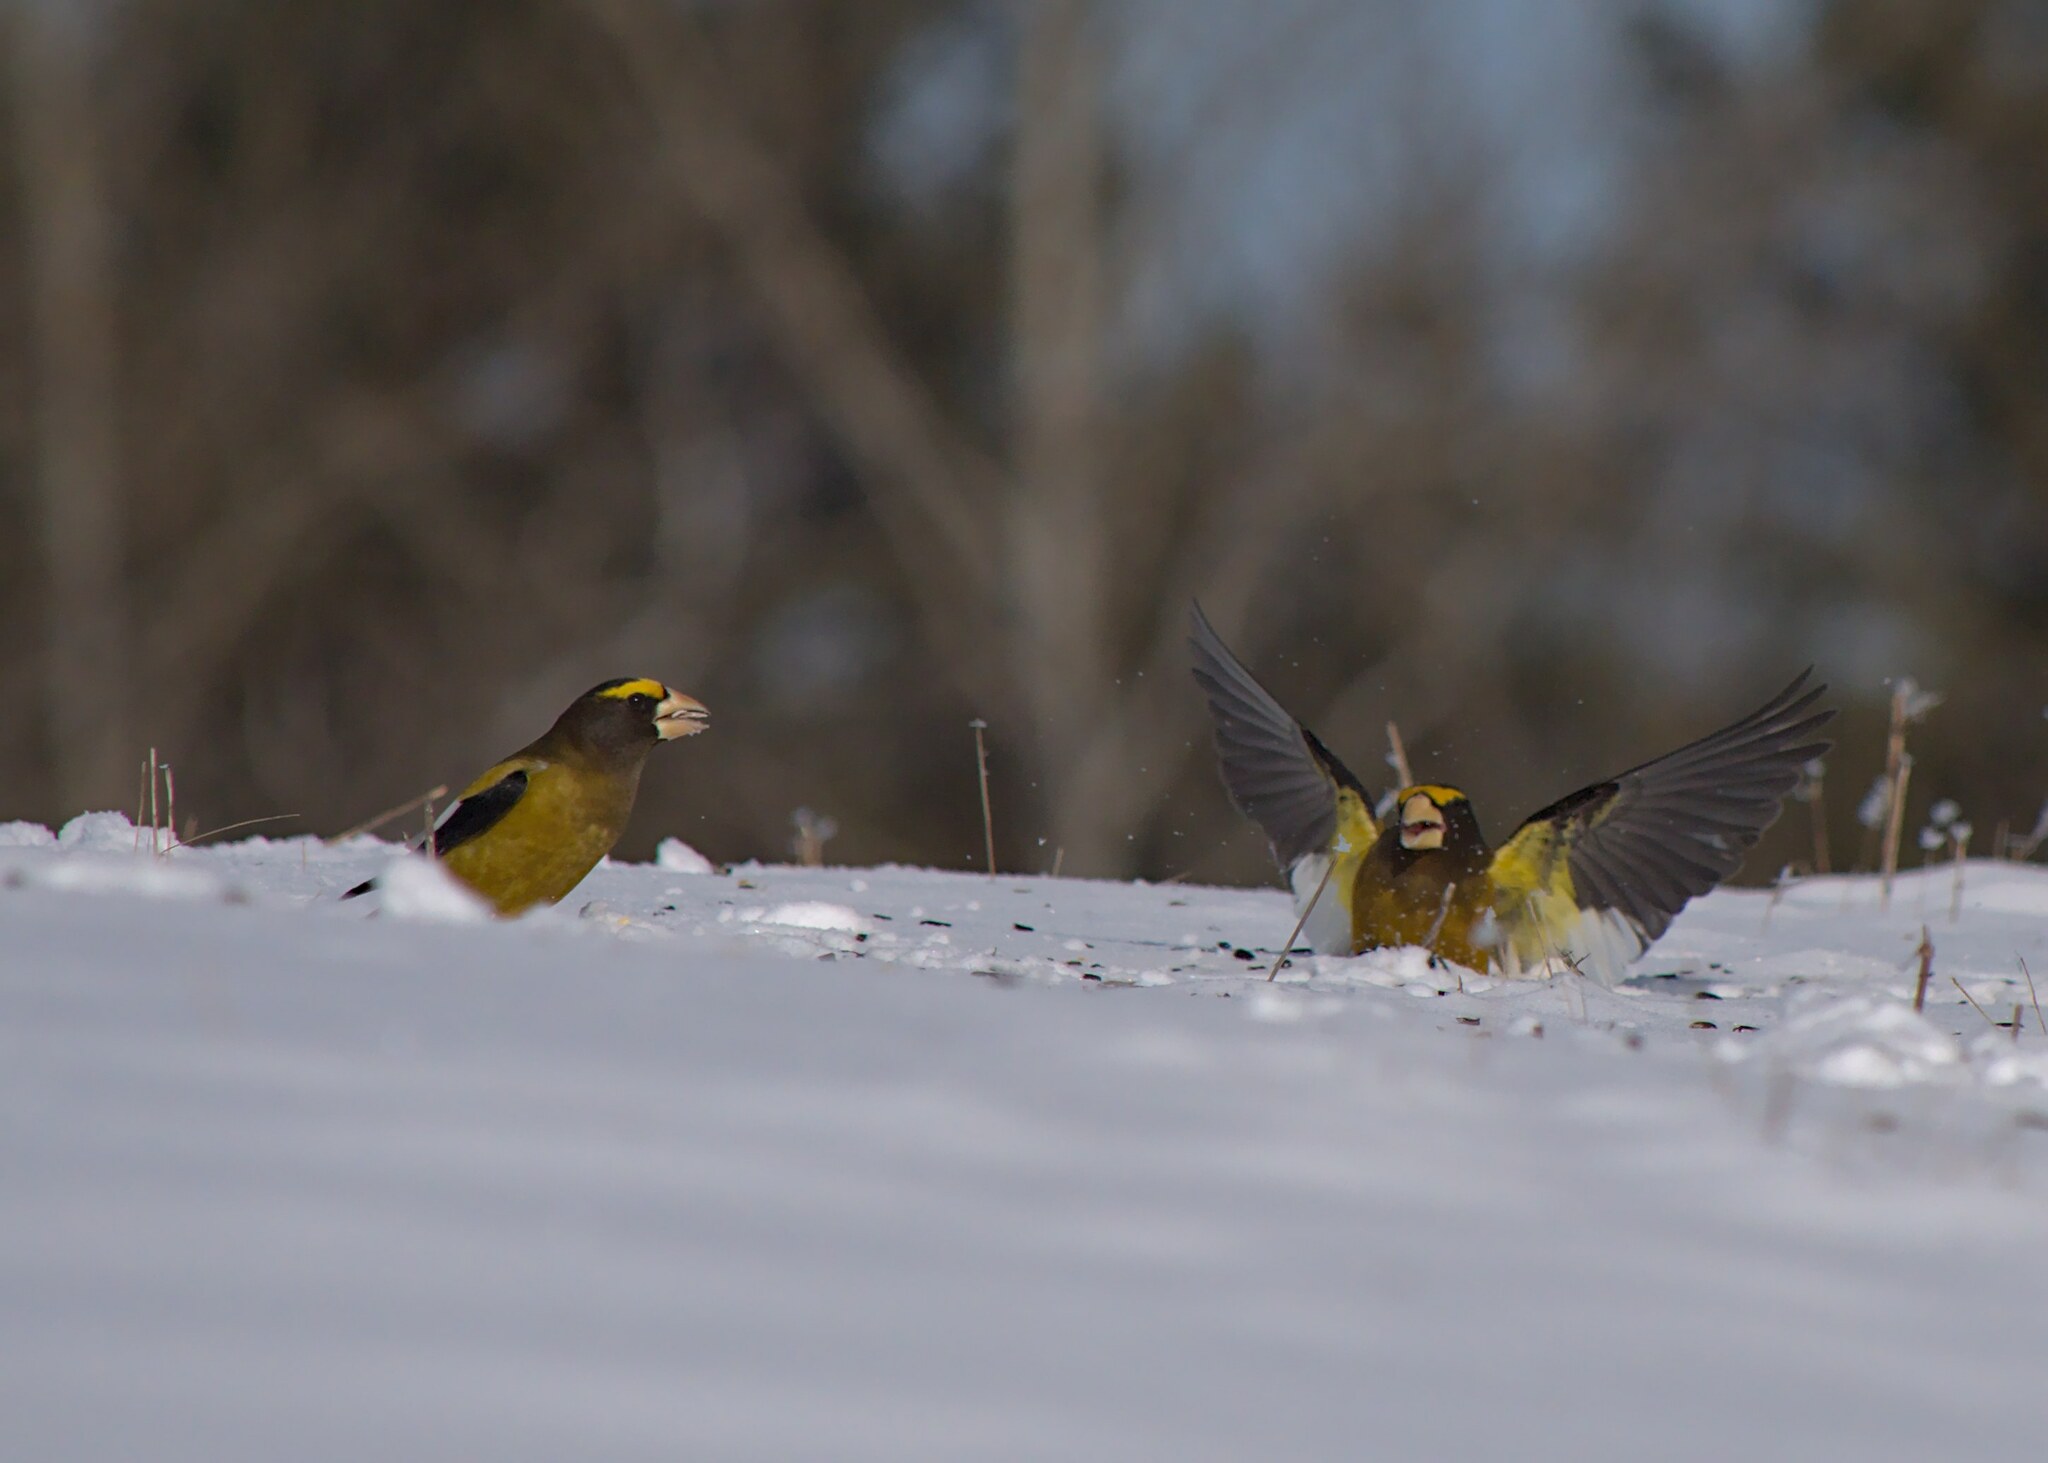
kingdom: Animalia
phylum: Chordata
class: Aves
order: Passeriformes
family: Fringillidae
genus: Hesperiphona
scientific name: Hesperiphona vespertina
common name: Evening grosbeak
